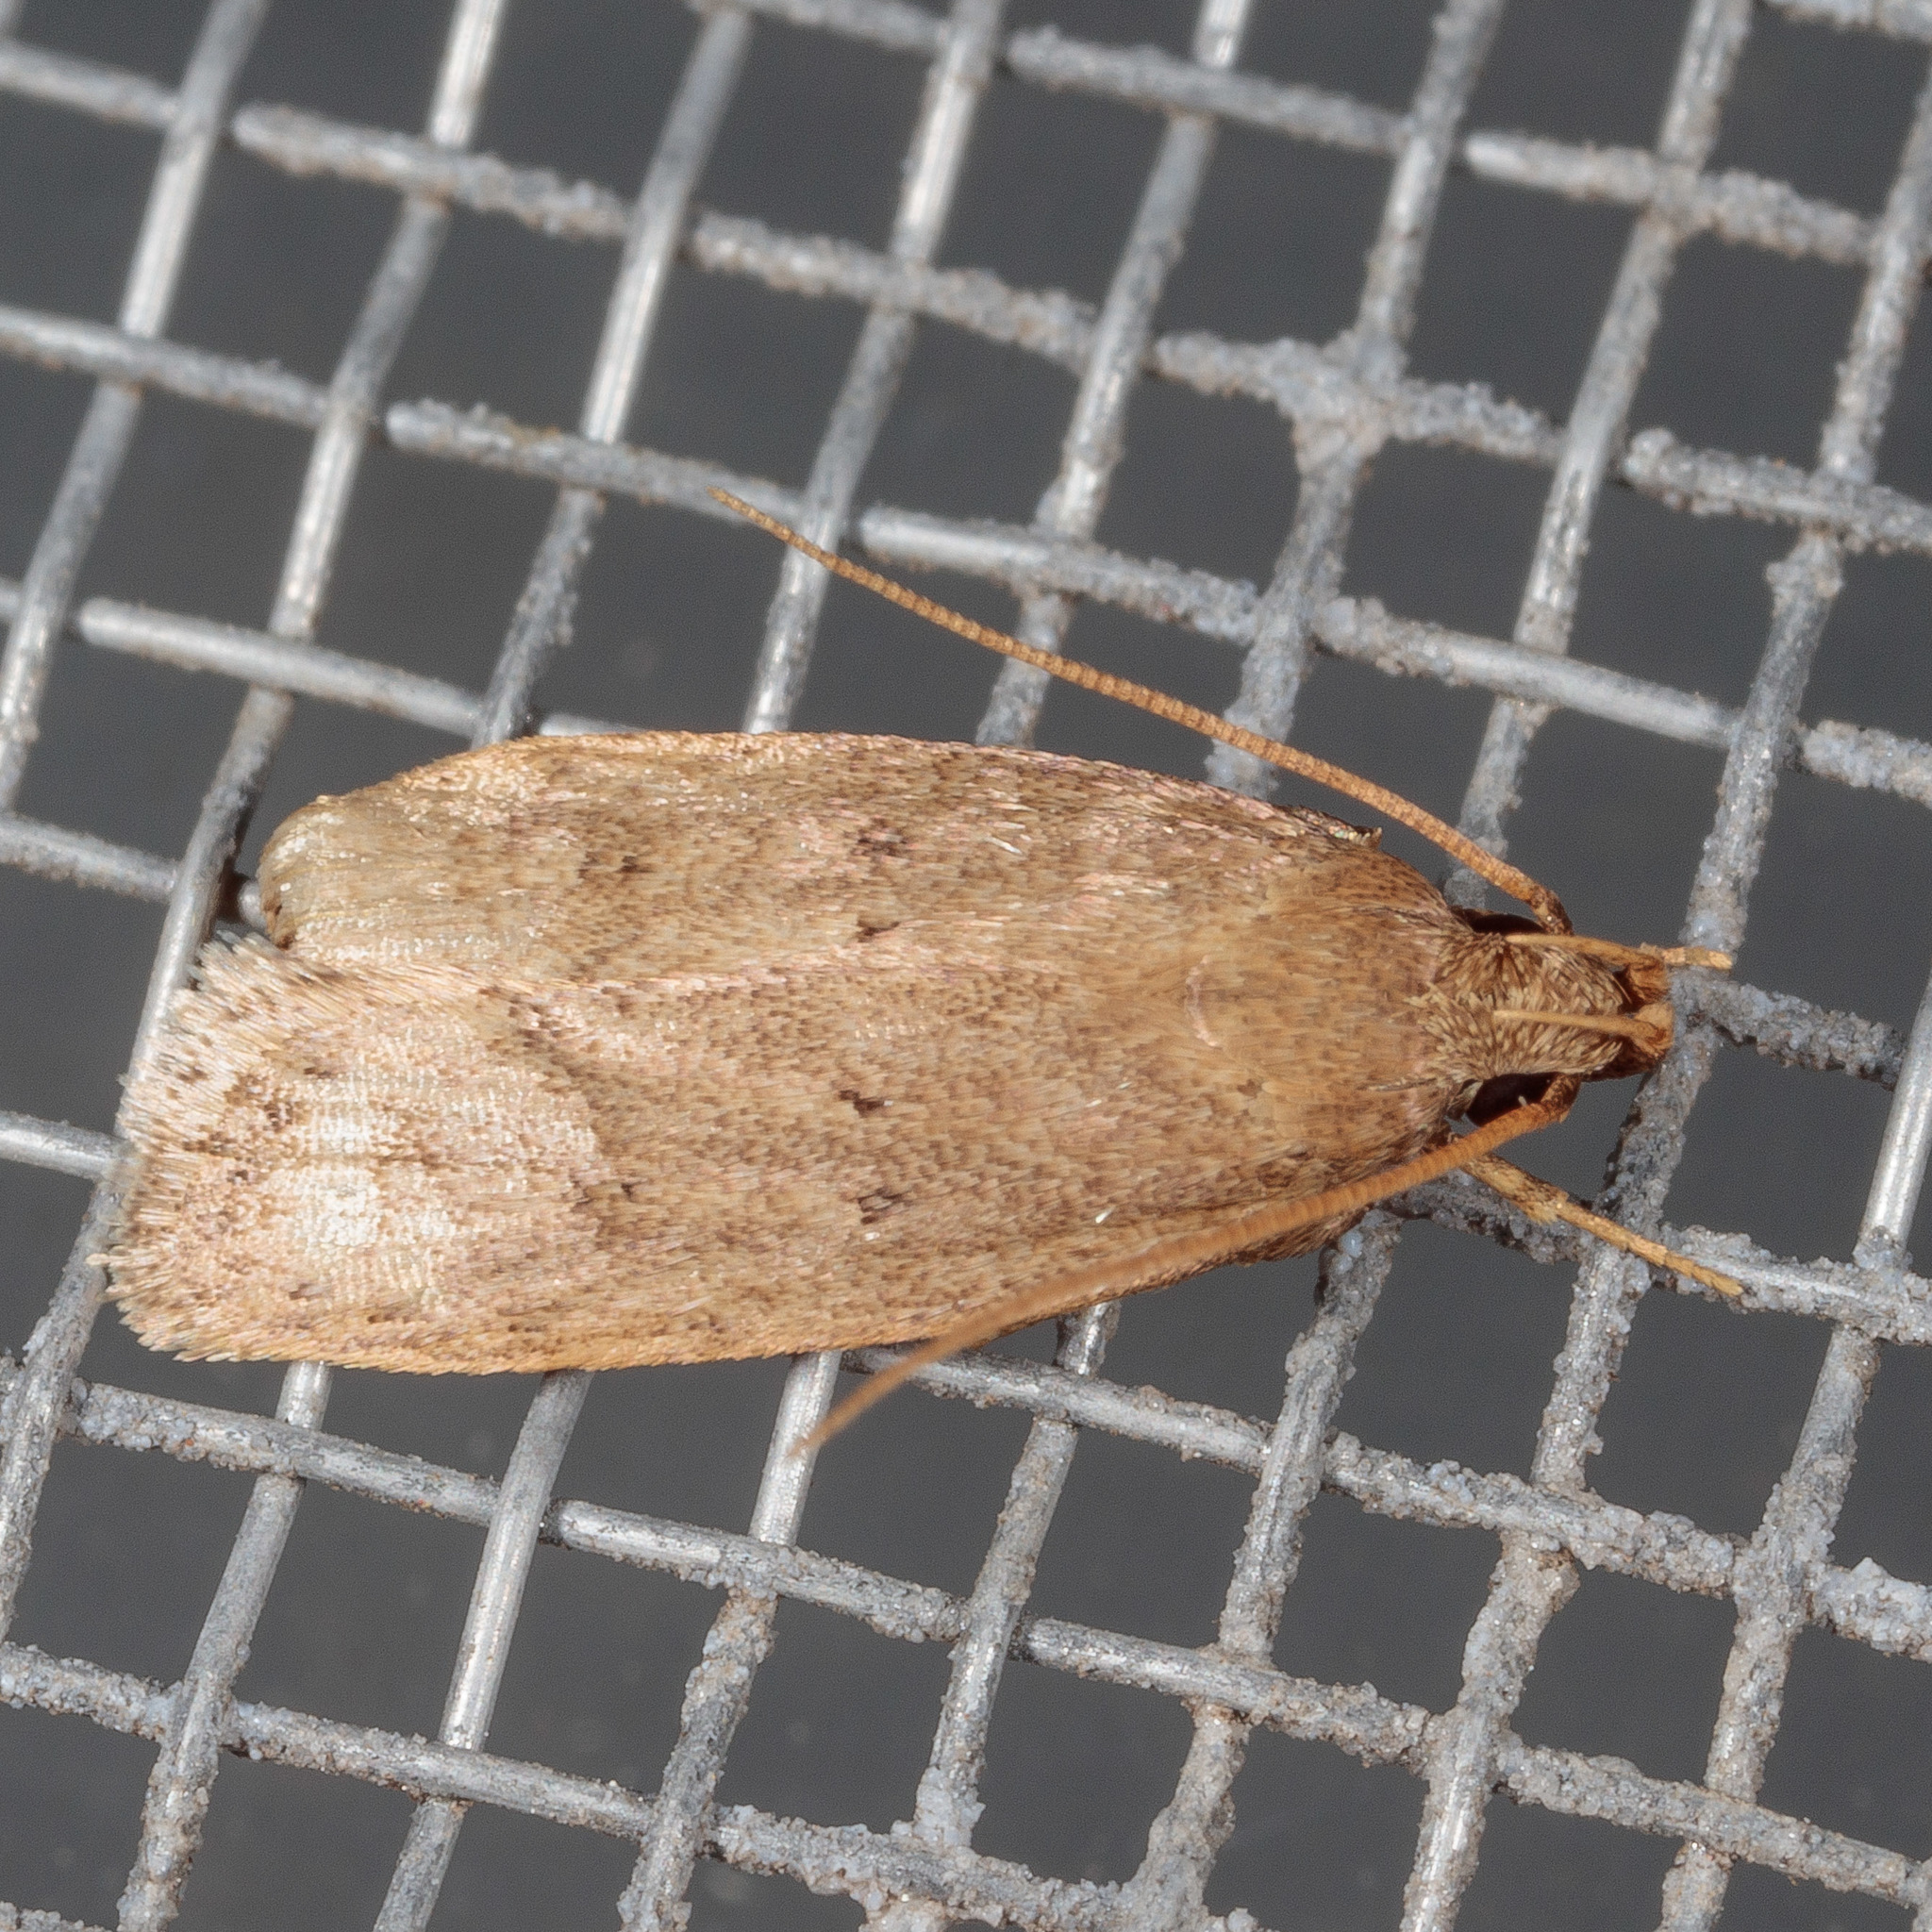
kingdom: Animalia
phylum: Arthropoda
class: Insecta
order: Lepidoptera
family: Autostichidae
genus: Autosticha
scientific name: Autosticha kyotensis
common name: Kyoto moth
